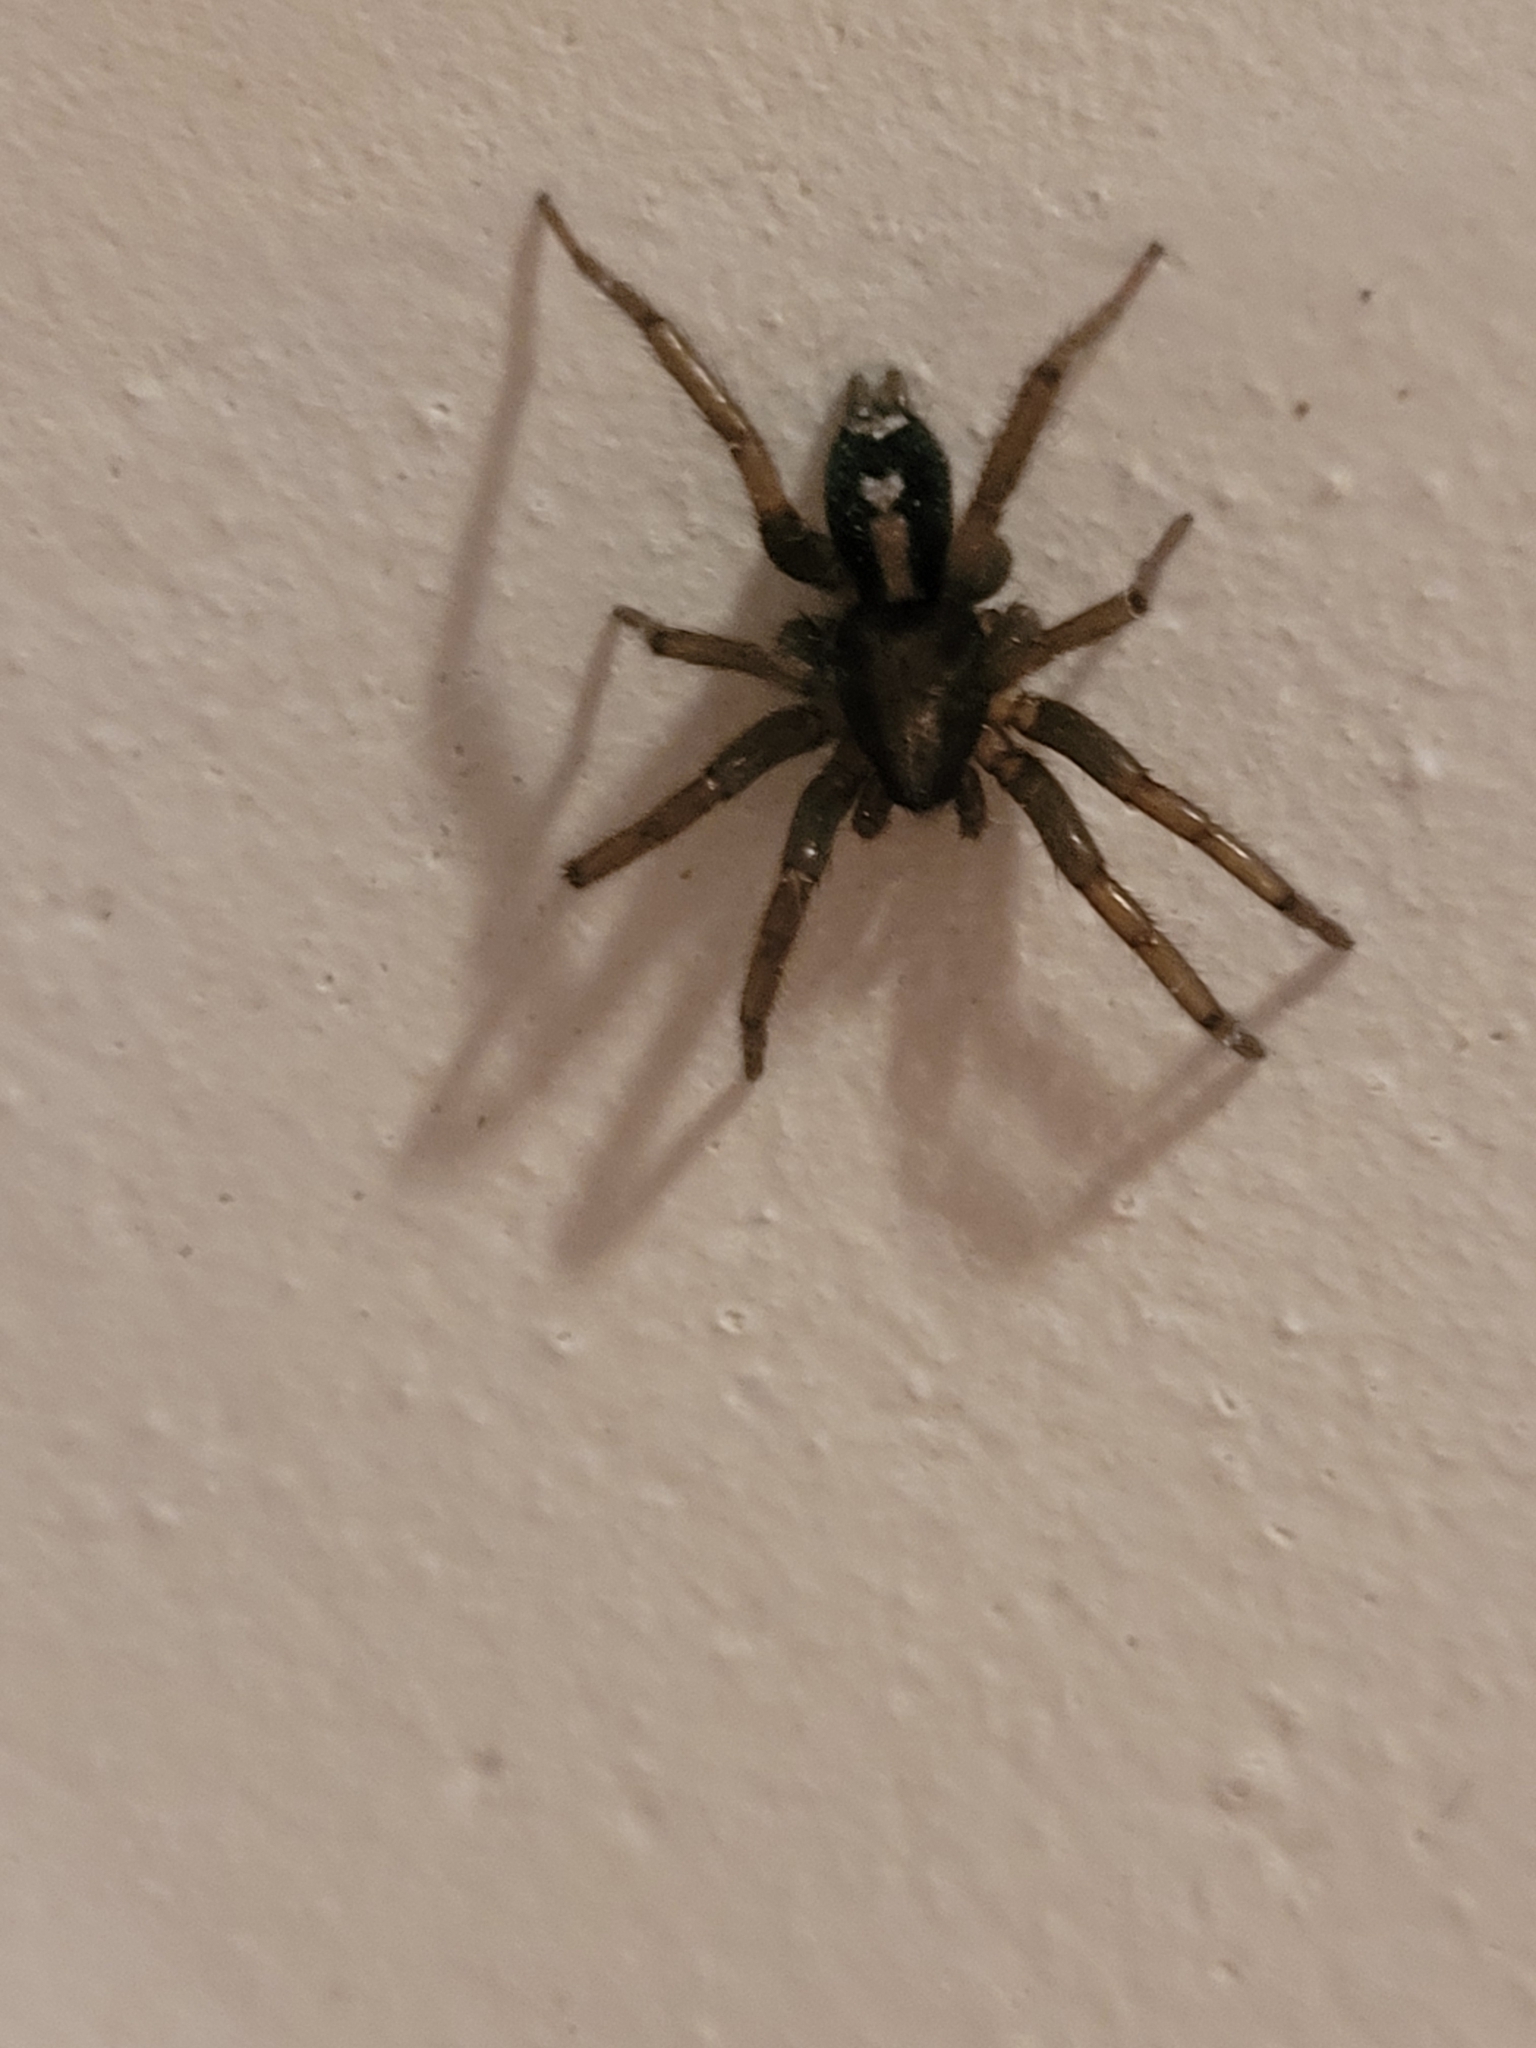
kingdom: Animalia
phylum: Arthropoda
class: Arachnida
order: Araneae
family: Gnaphosidae
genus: Herpyllus
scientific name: Herpyllus ecclesiasticus
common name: Eastern parson spider
